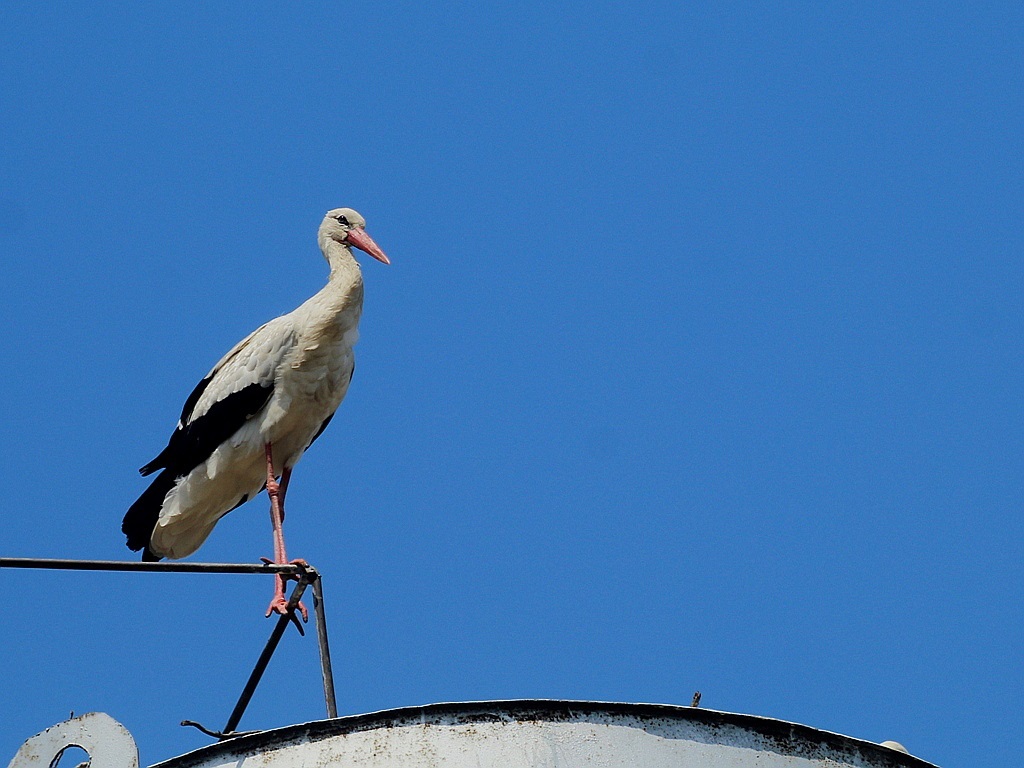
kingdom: Animalia
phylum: Chordata
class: Aves
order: Ciconiiformes
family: Ciconiidae
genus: Ciconia
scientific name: Ciconia ciconia
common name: White stork
